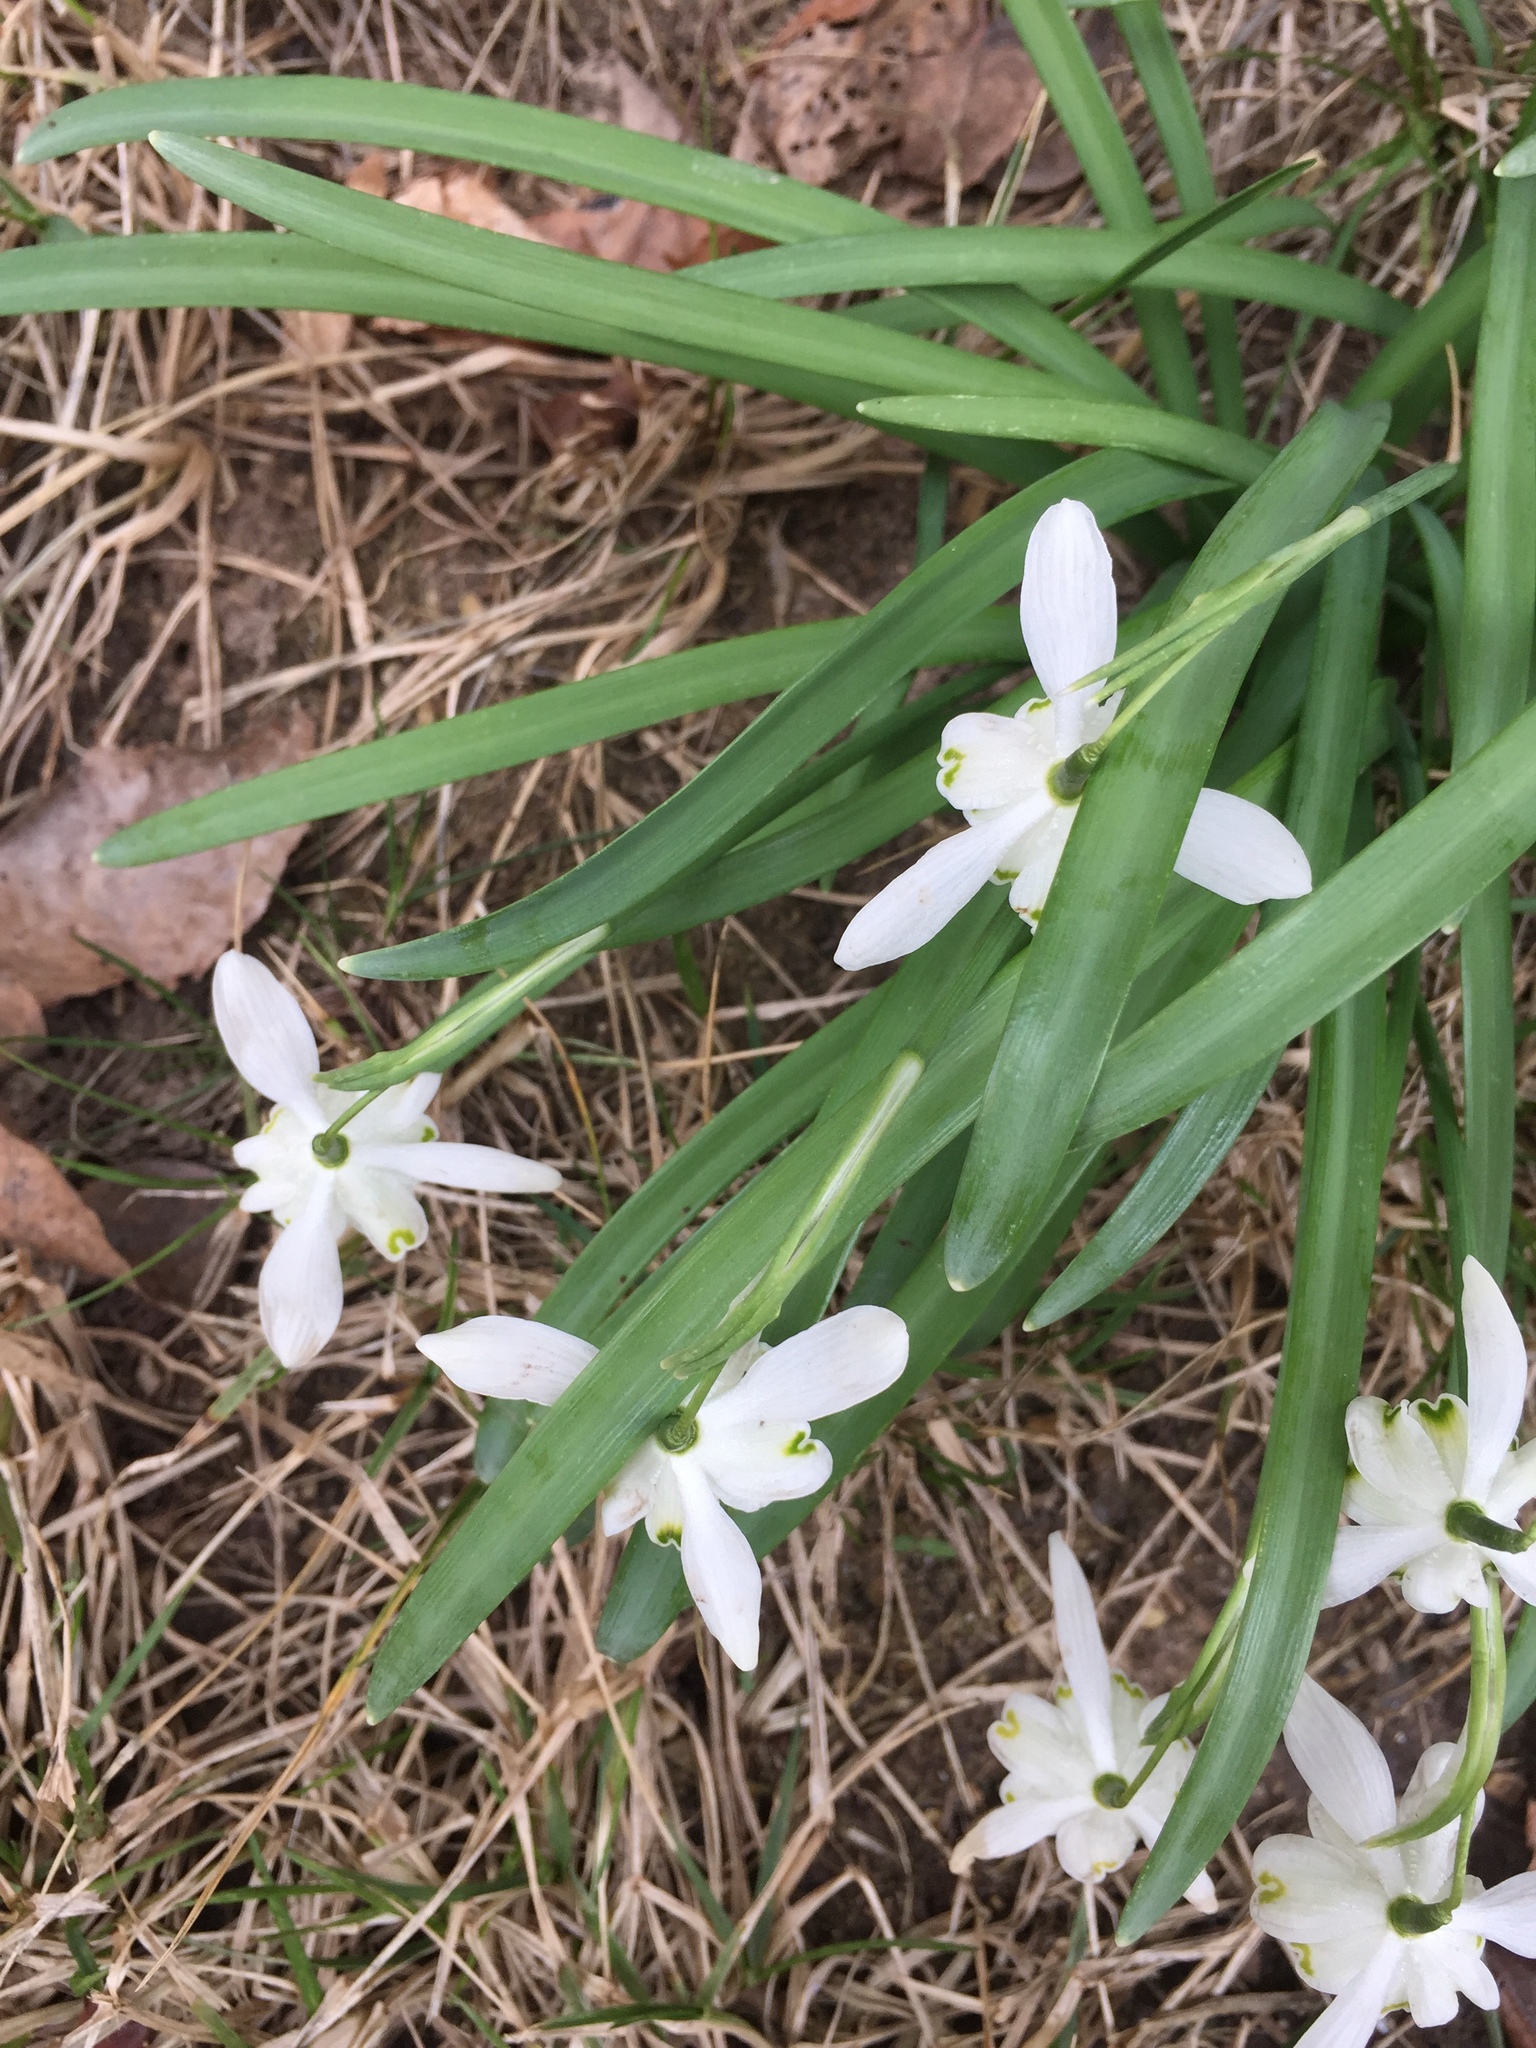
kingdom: Plantae
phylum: Tracheophyta
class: Liliopsida
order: Asparagales
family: Amaryllidaceae
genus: Galanthus
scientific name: Galanthus nivalis
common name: Snowdrop
